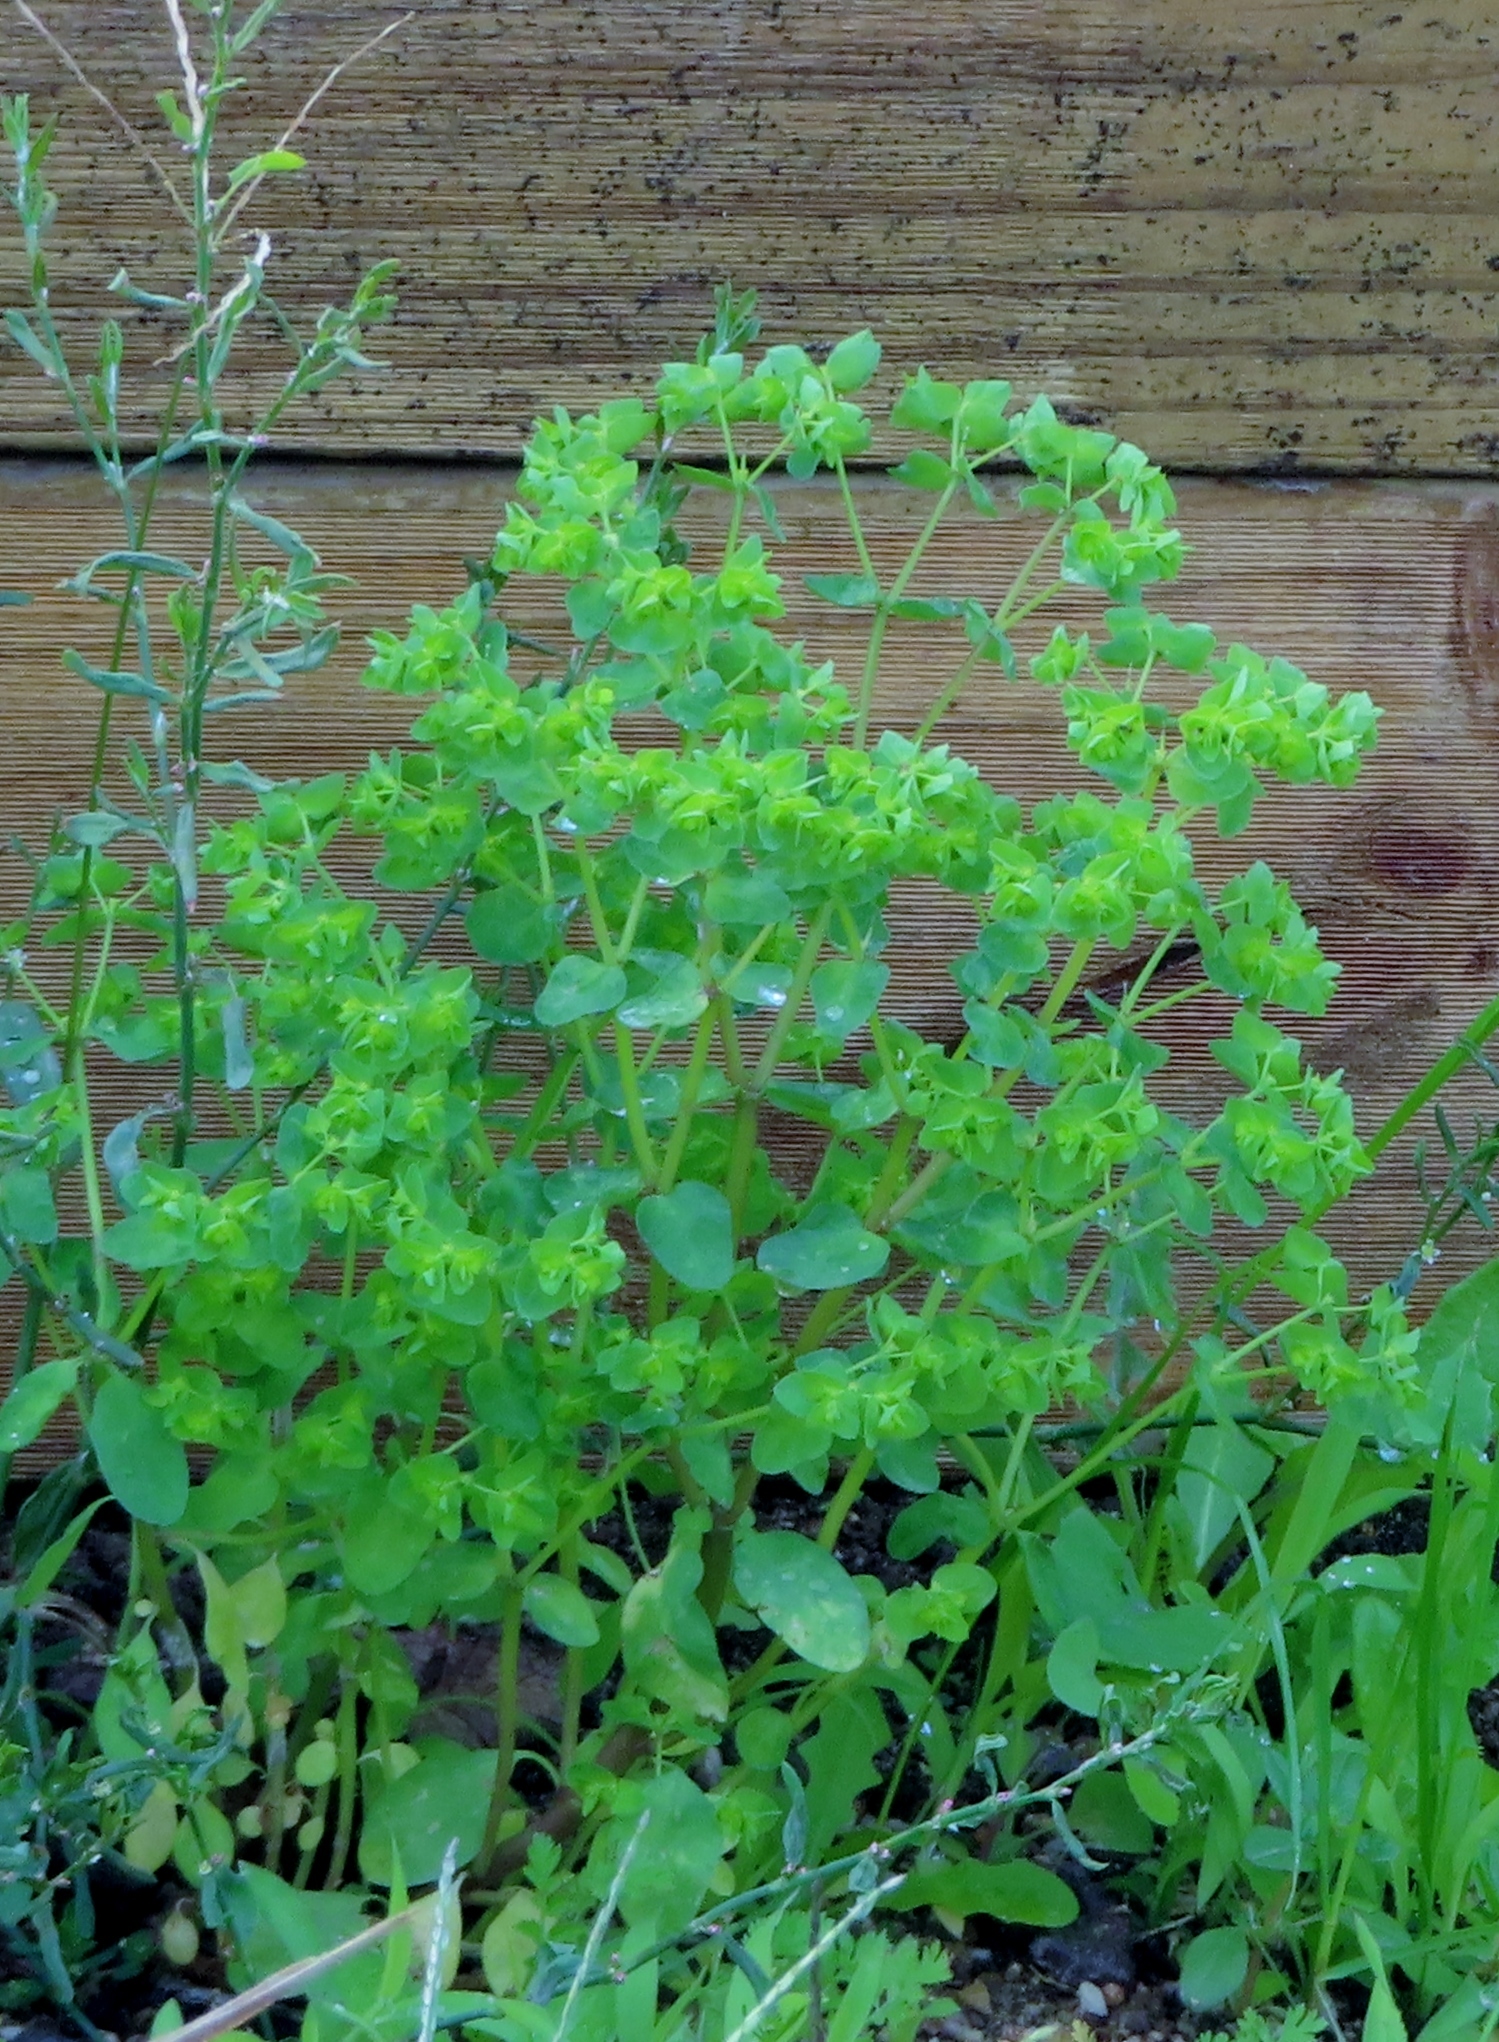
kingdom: Plantae
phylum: Tracheophyta
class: Magnoliopsida
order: Malpighiales
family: Euphorbiaceae
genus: Euphorbia
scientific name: Euphorbia peplus
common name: Petty spurge
